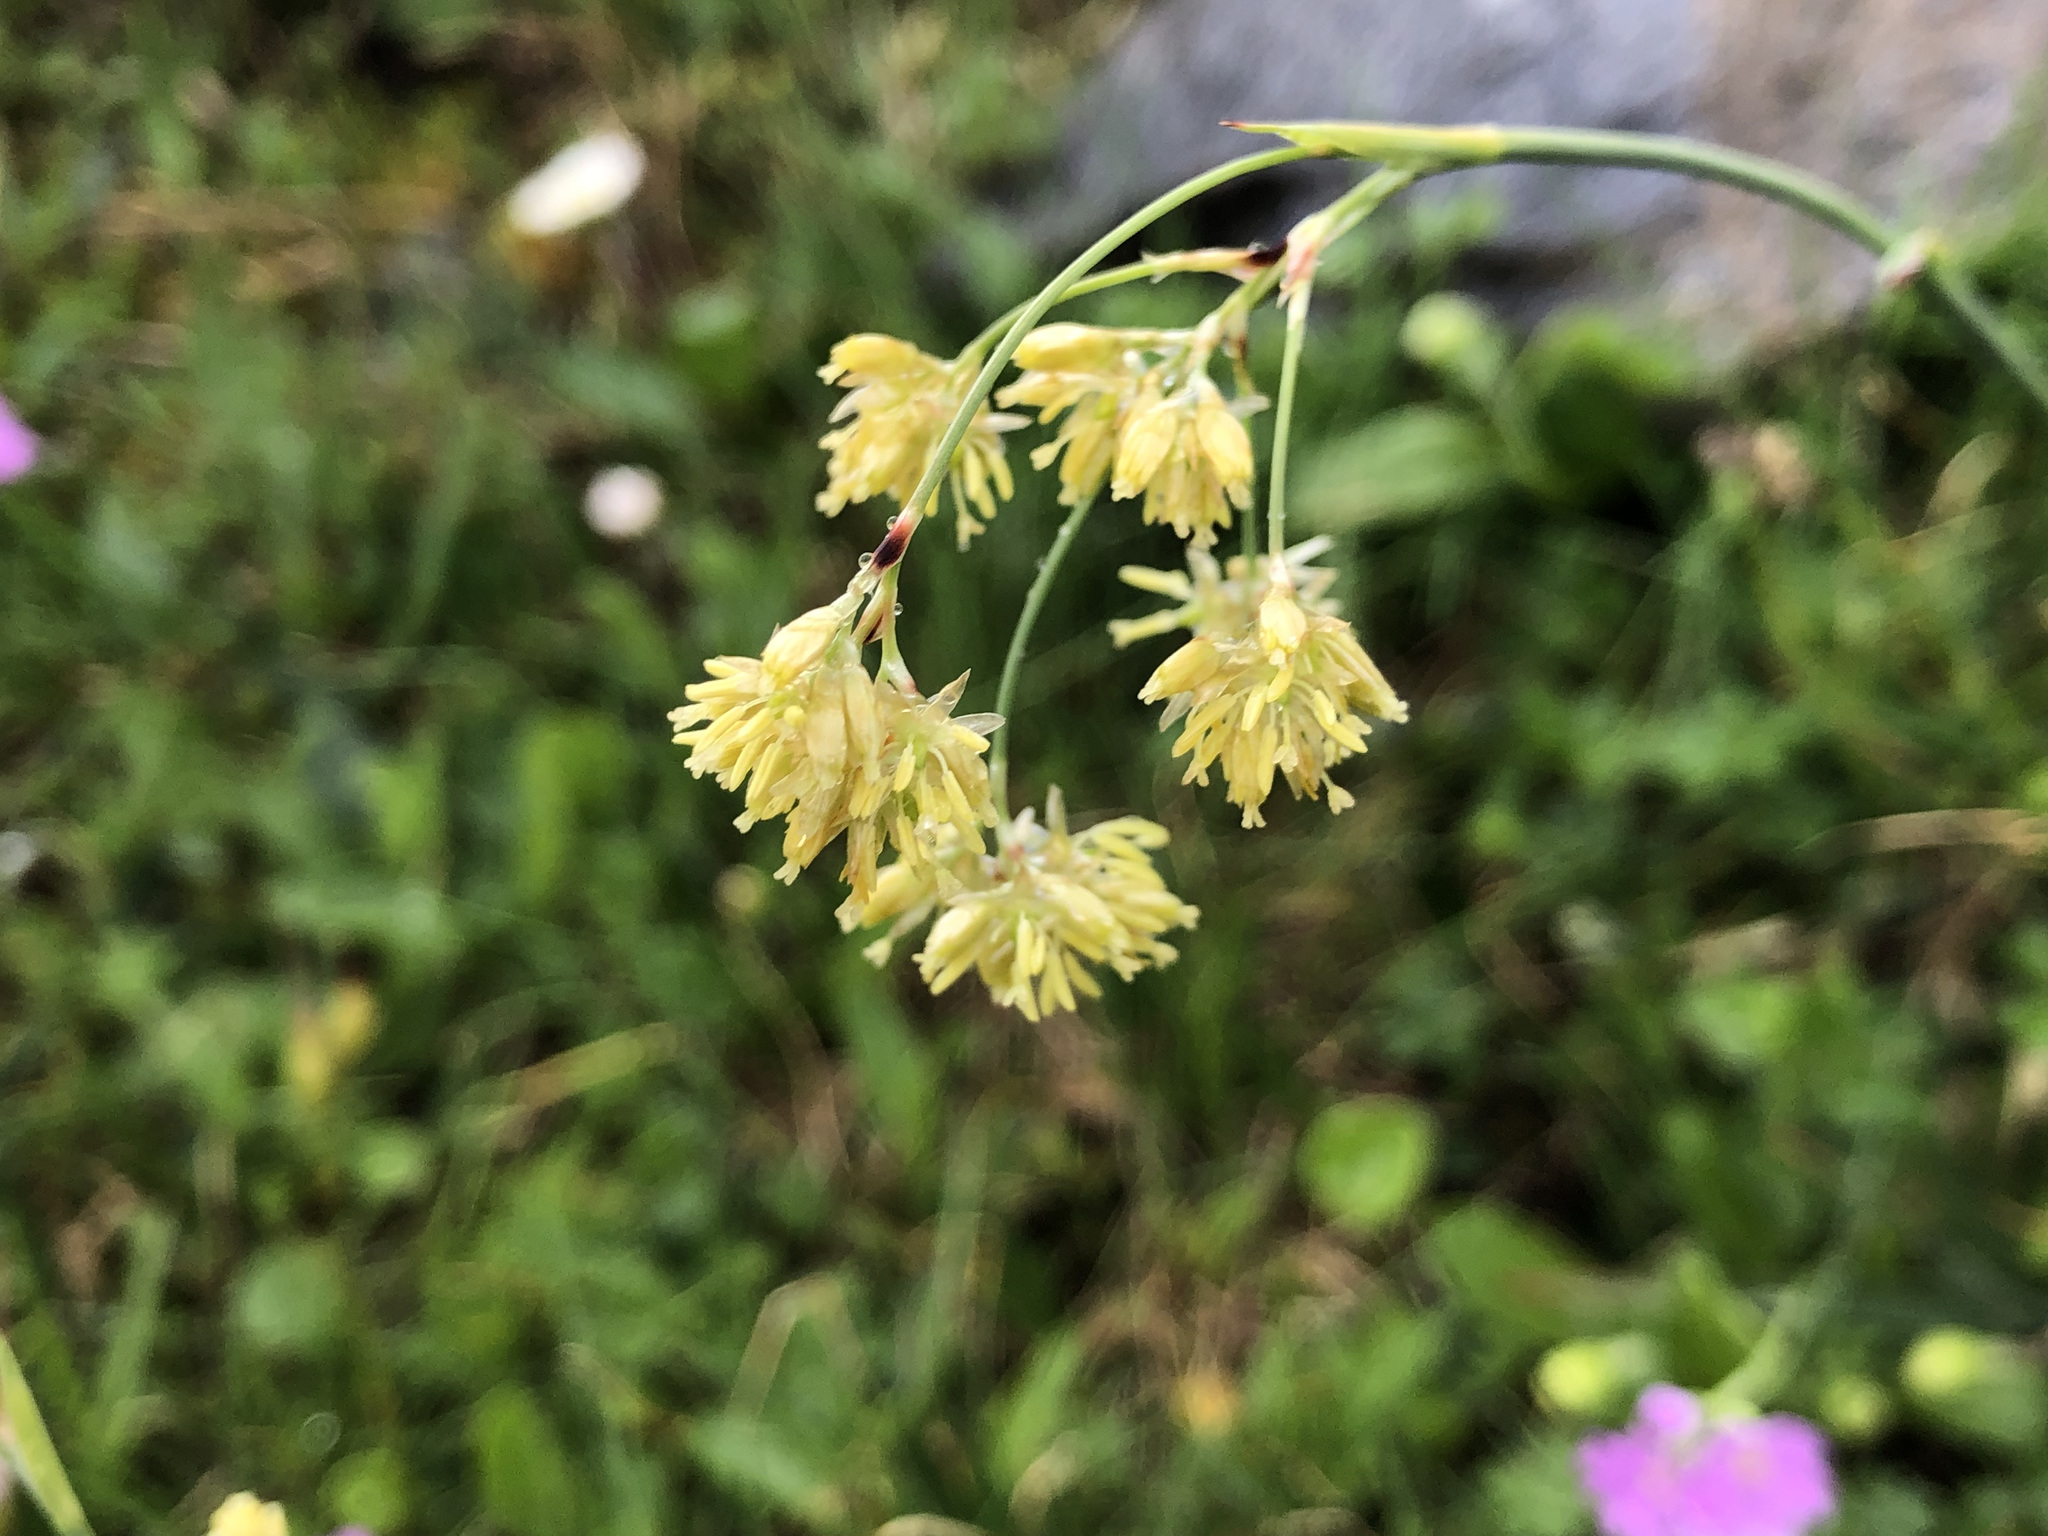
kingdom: Plantae
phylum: Tracheophyta
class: Liliopsida
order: Poales
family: Juncaceae
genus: Luzula
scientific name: Luzula lutea
